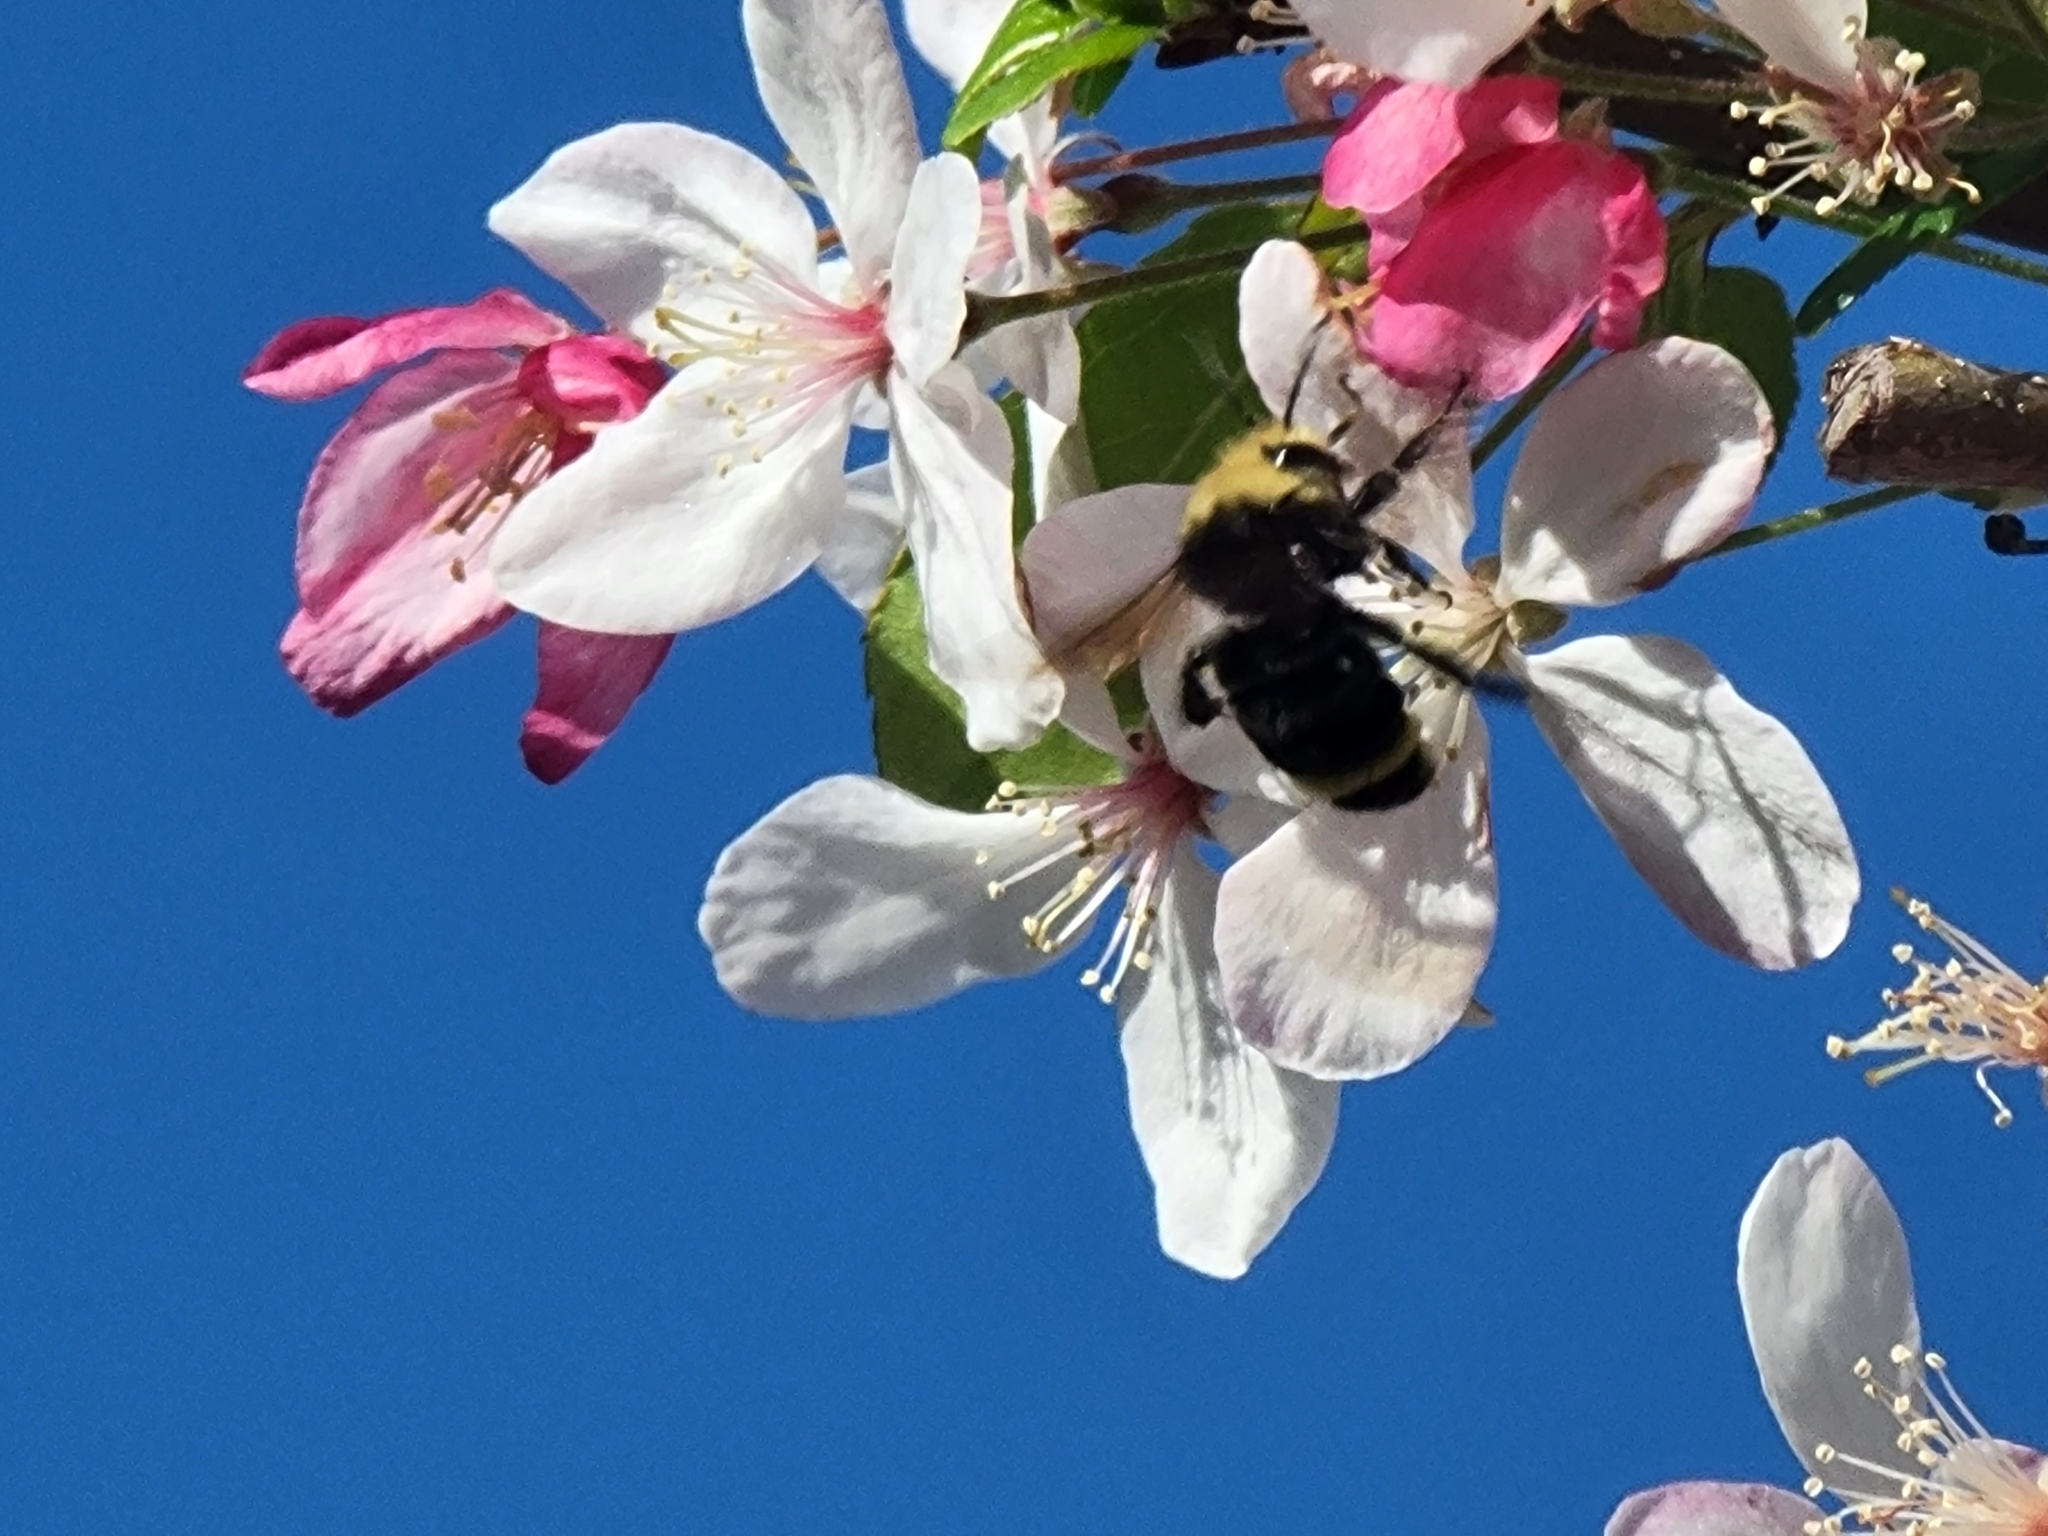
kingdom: Animalia
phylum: Arthropoda
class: Insecta
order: Hymenoptera
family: Apidae
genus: Pyrobombus
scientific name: Pyrobombus
